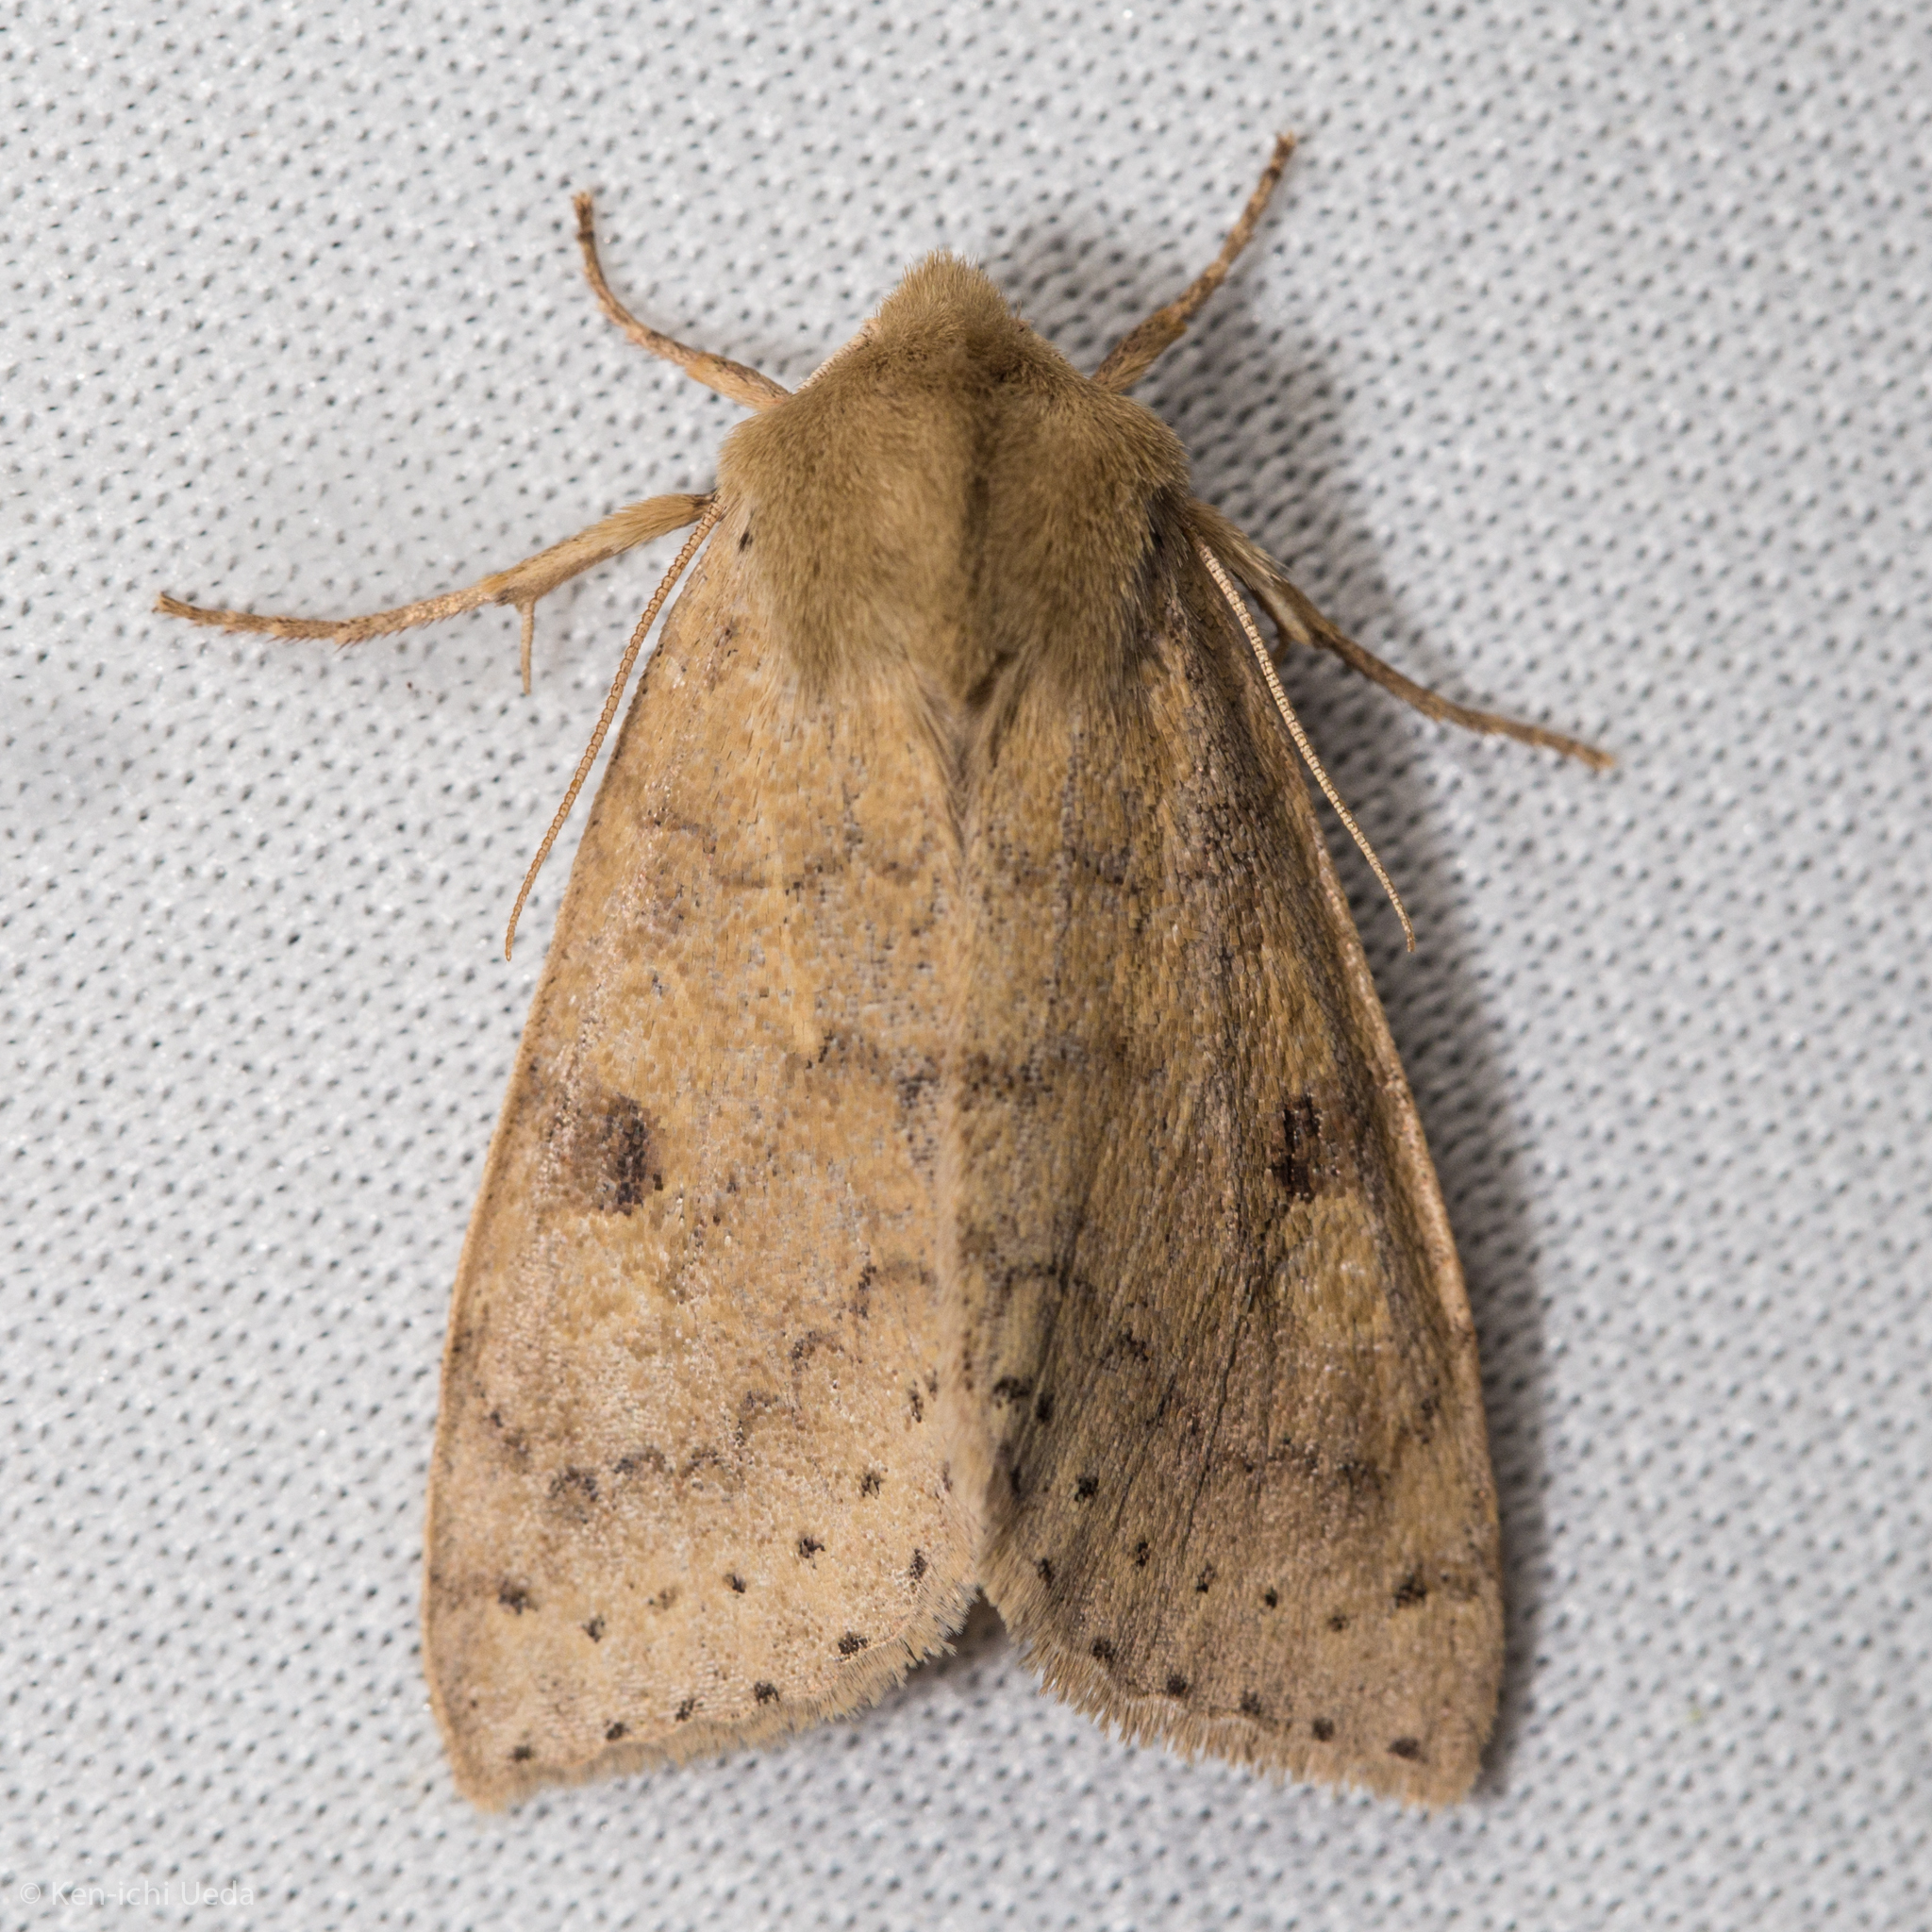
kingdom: Animalia
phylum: Arthropoda
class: Insecta
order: Lepidoptera
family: Noctuidae
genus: Orthosia
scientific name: Orthosia arthrolita
